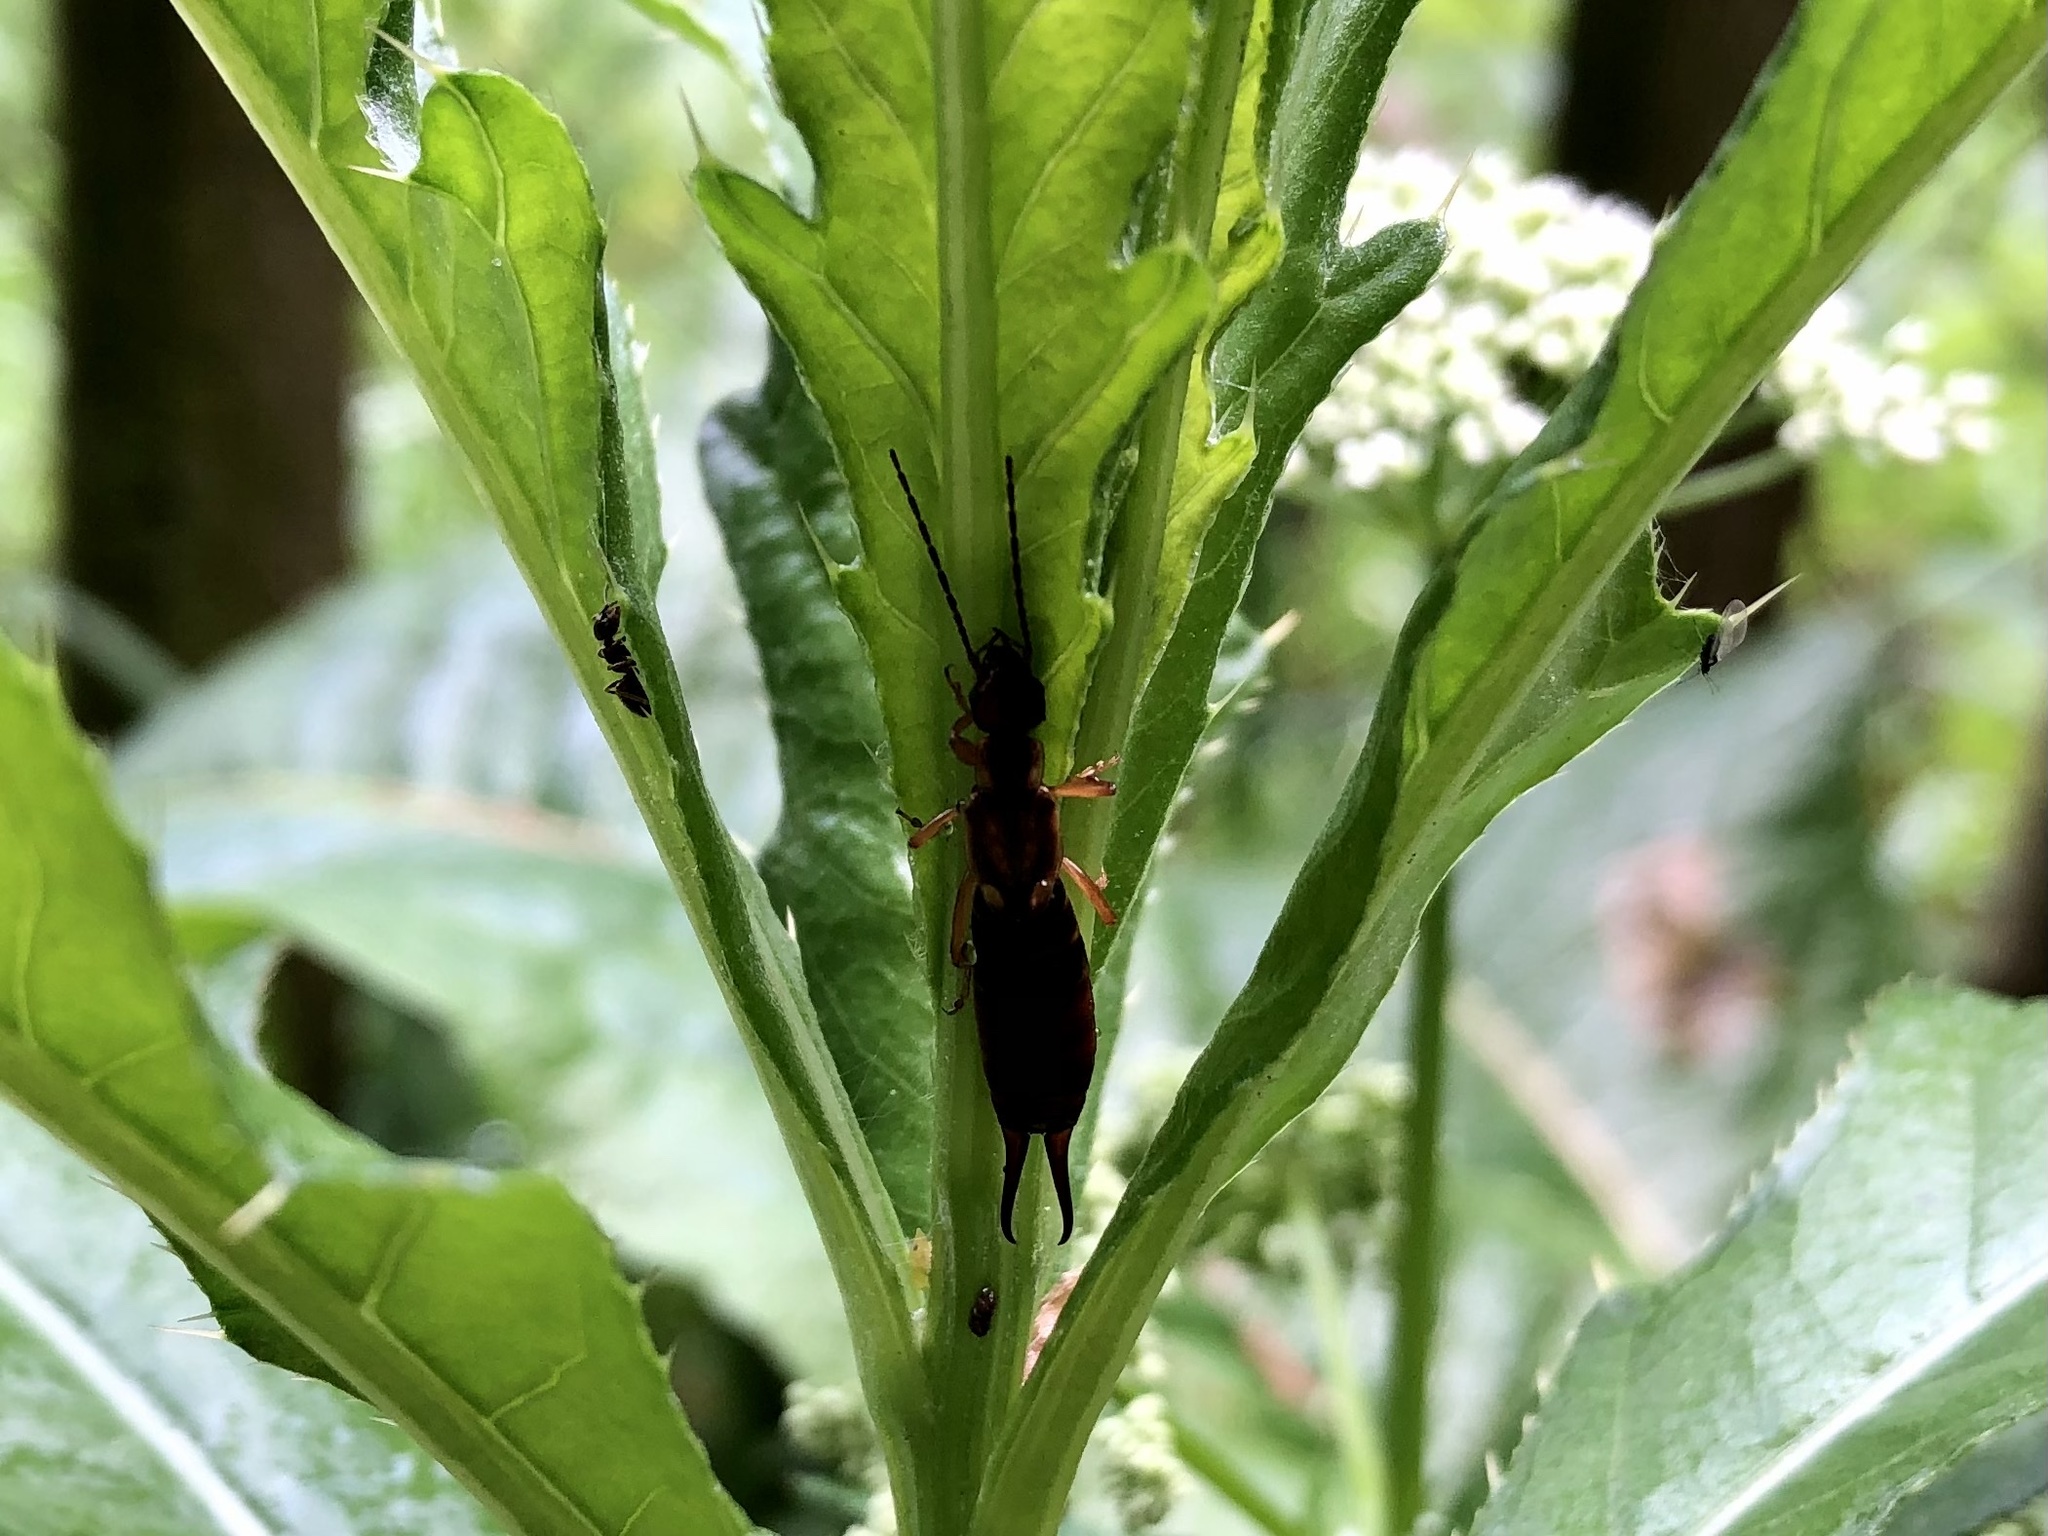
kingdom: Animalia
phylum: Arthropoda
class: Insecta
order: Dermaptera
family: Forficulidae
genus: Forficula
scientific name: Forficula
